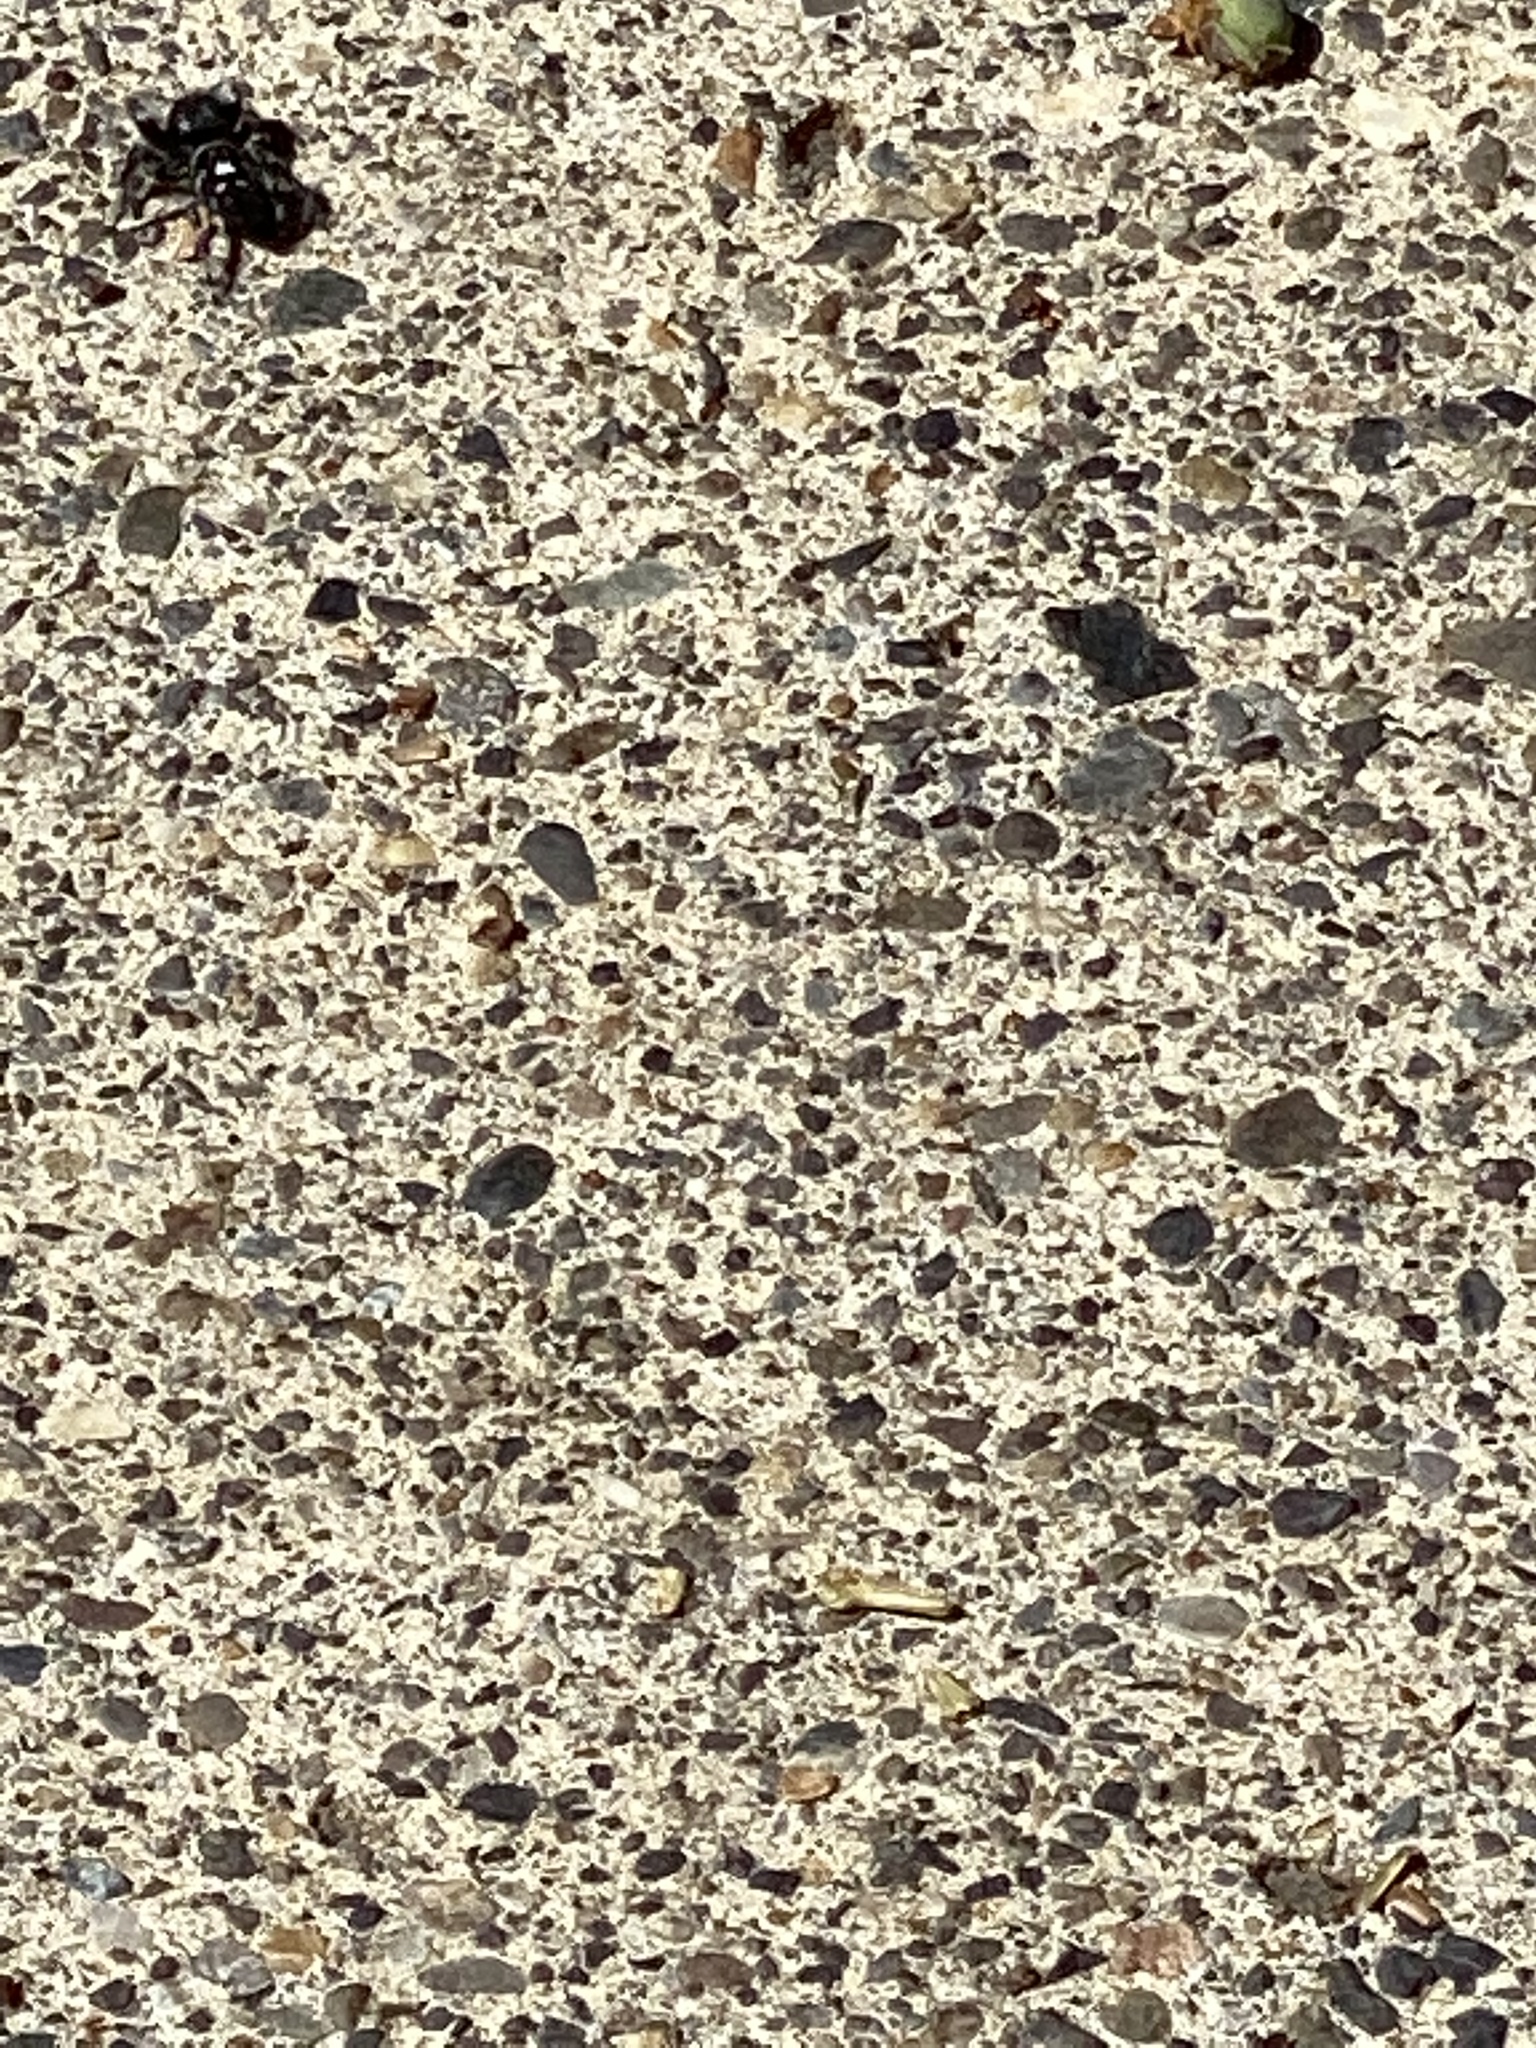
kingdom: Animalia
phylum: Arthropoda
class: Arachnida
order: Araneae
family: Salticidae
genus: Phidippus
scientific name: Phidippus audax
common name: Bold jumper
